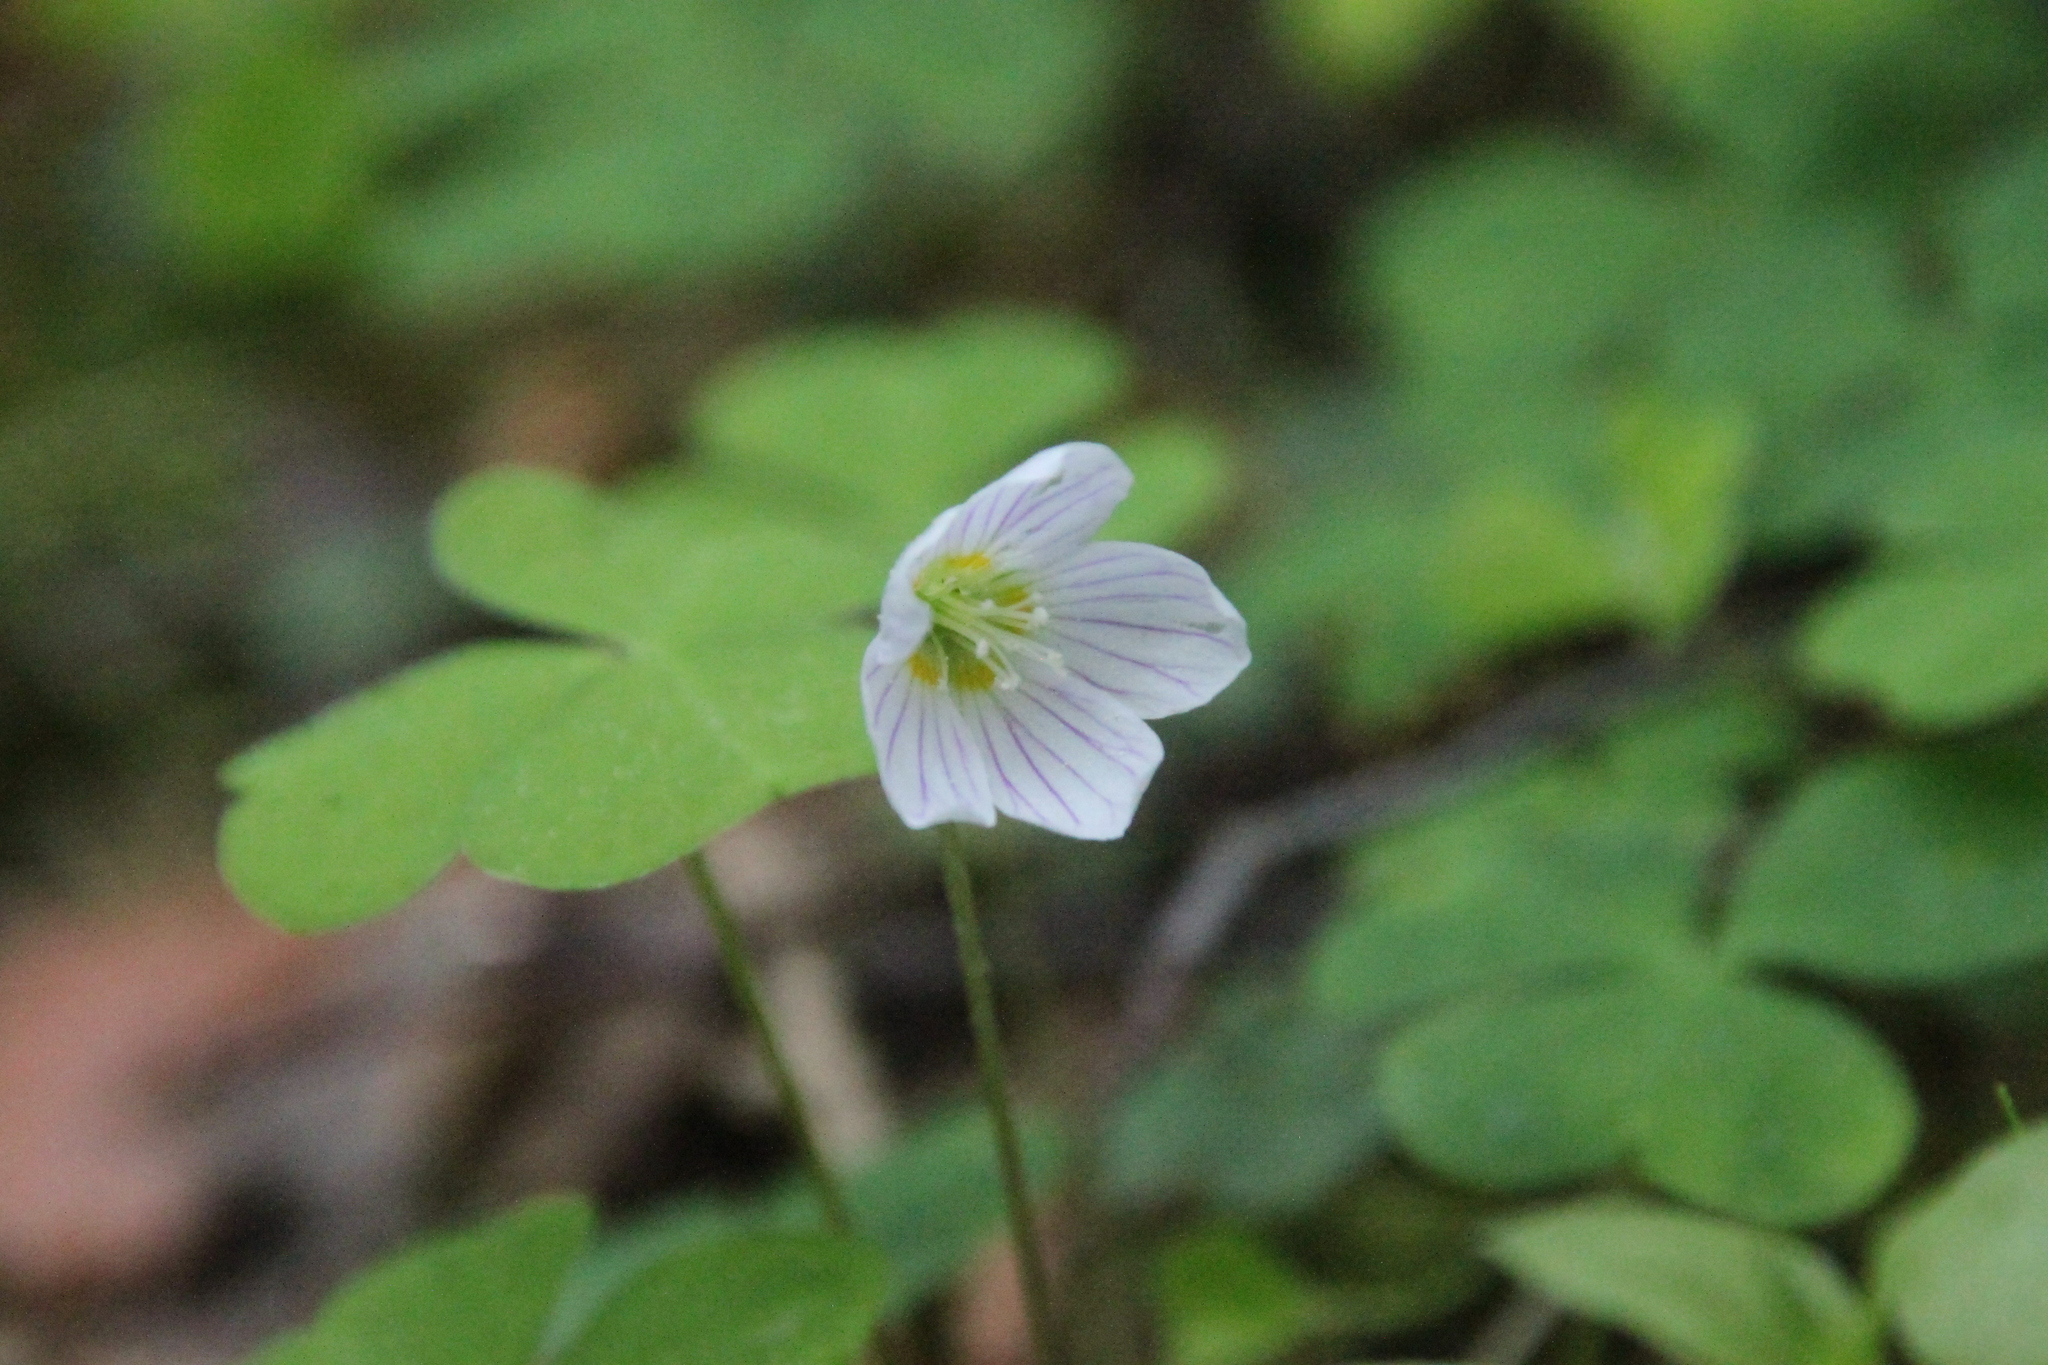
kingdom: Plantae
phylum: Tracheophyta
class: Magnoliopsida
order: Oxalidales
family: Oxalidaceae
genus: Oxalis
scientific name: Oxalis acetosella
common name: Wood-sorrel
